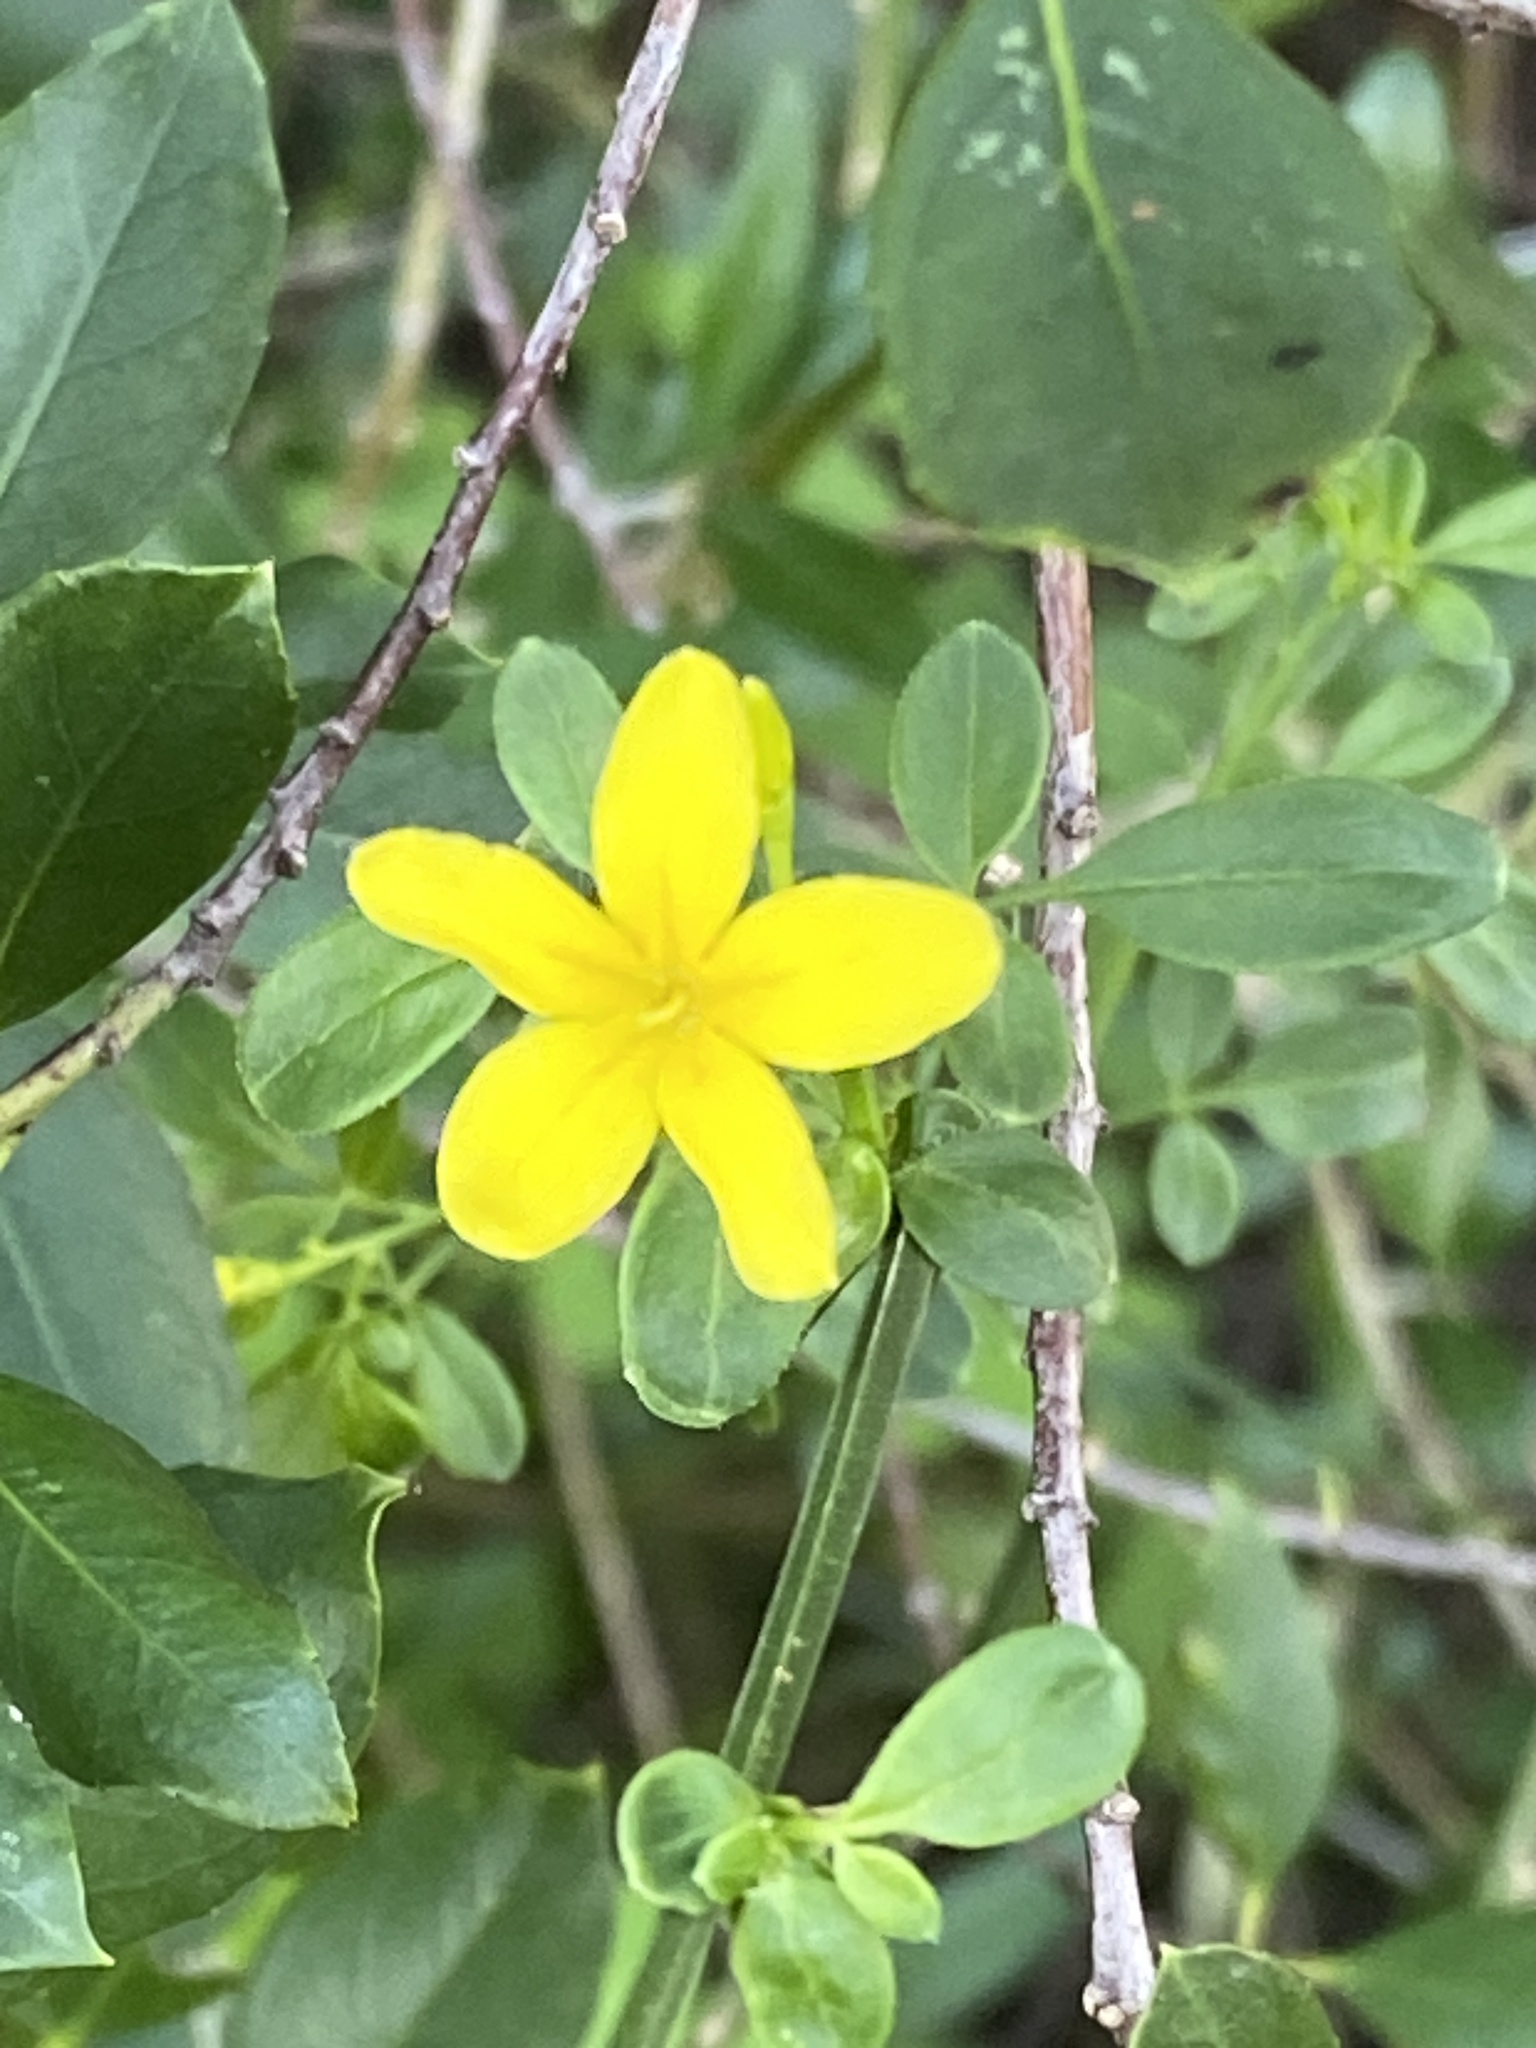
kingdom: Plantae
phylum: Tracheophyta
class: Magnoliopsida
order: Lamiales
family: Oleaceae
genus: Chrysojasminum
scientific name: Chrysojasminum fruticans
